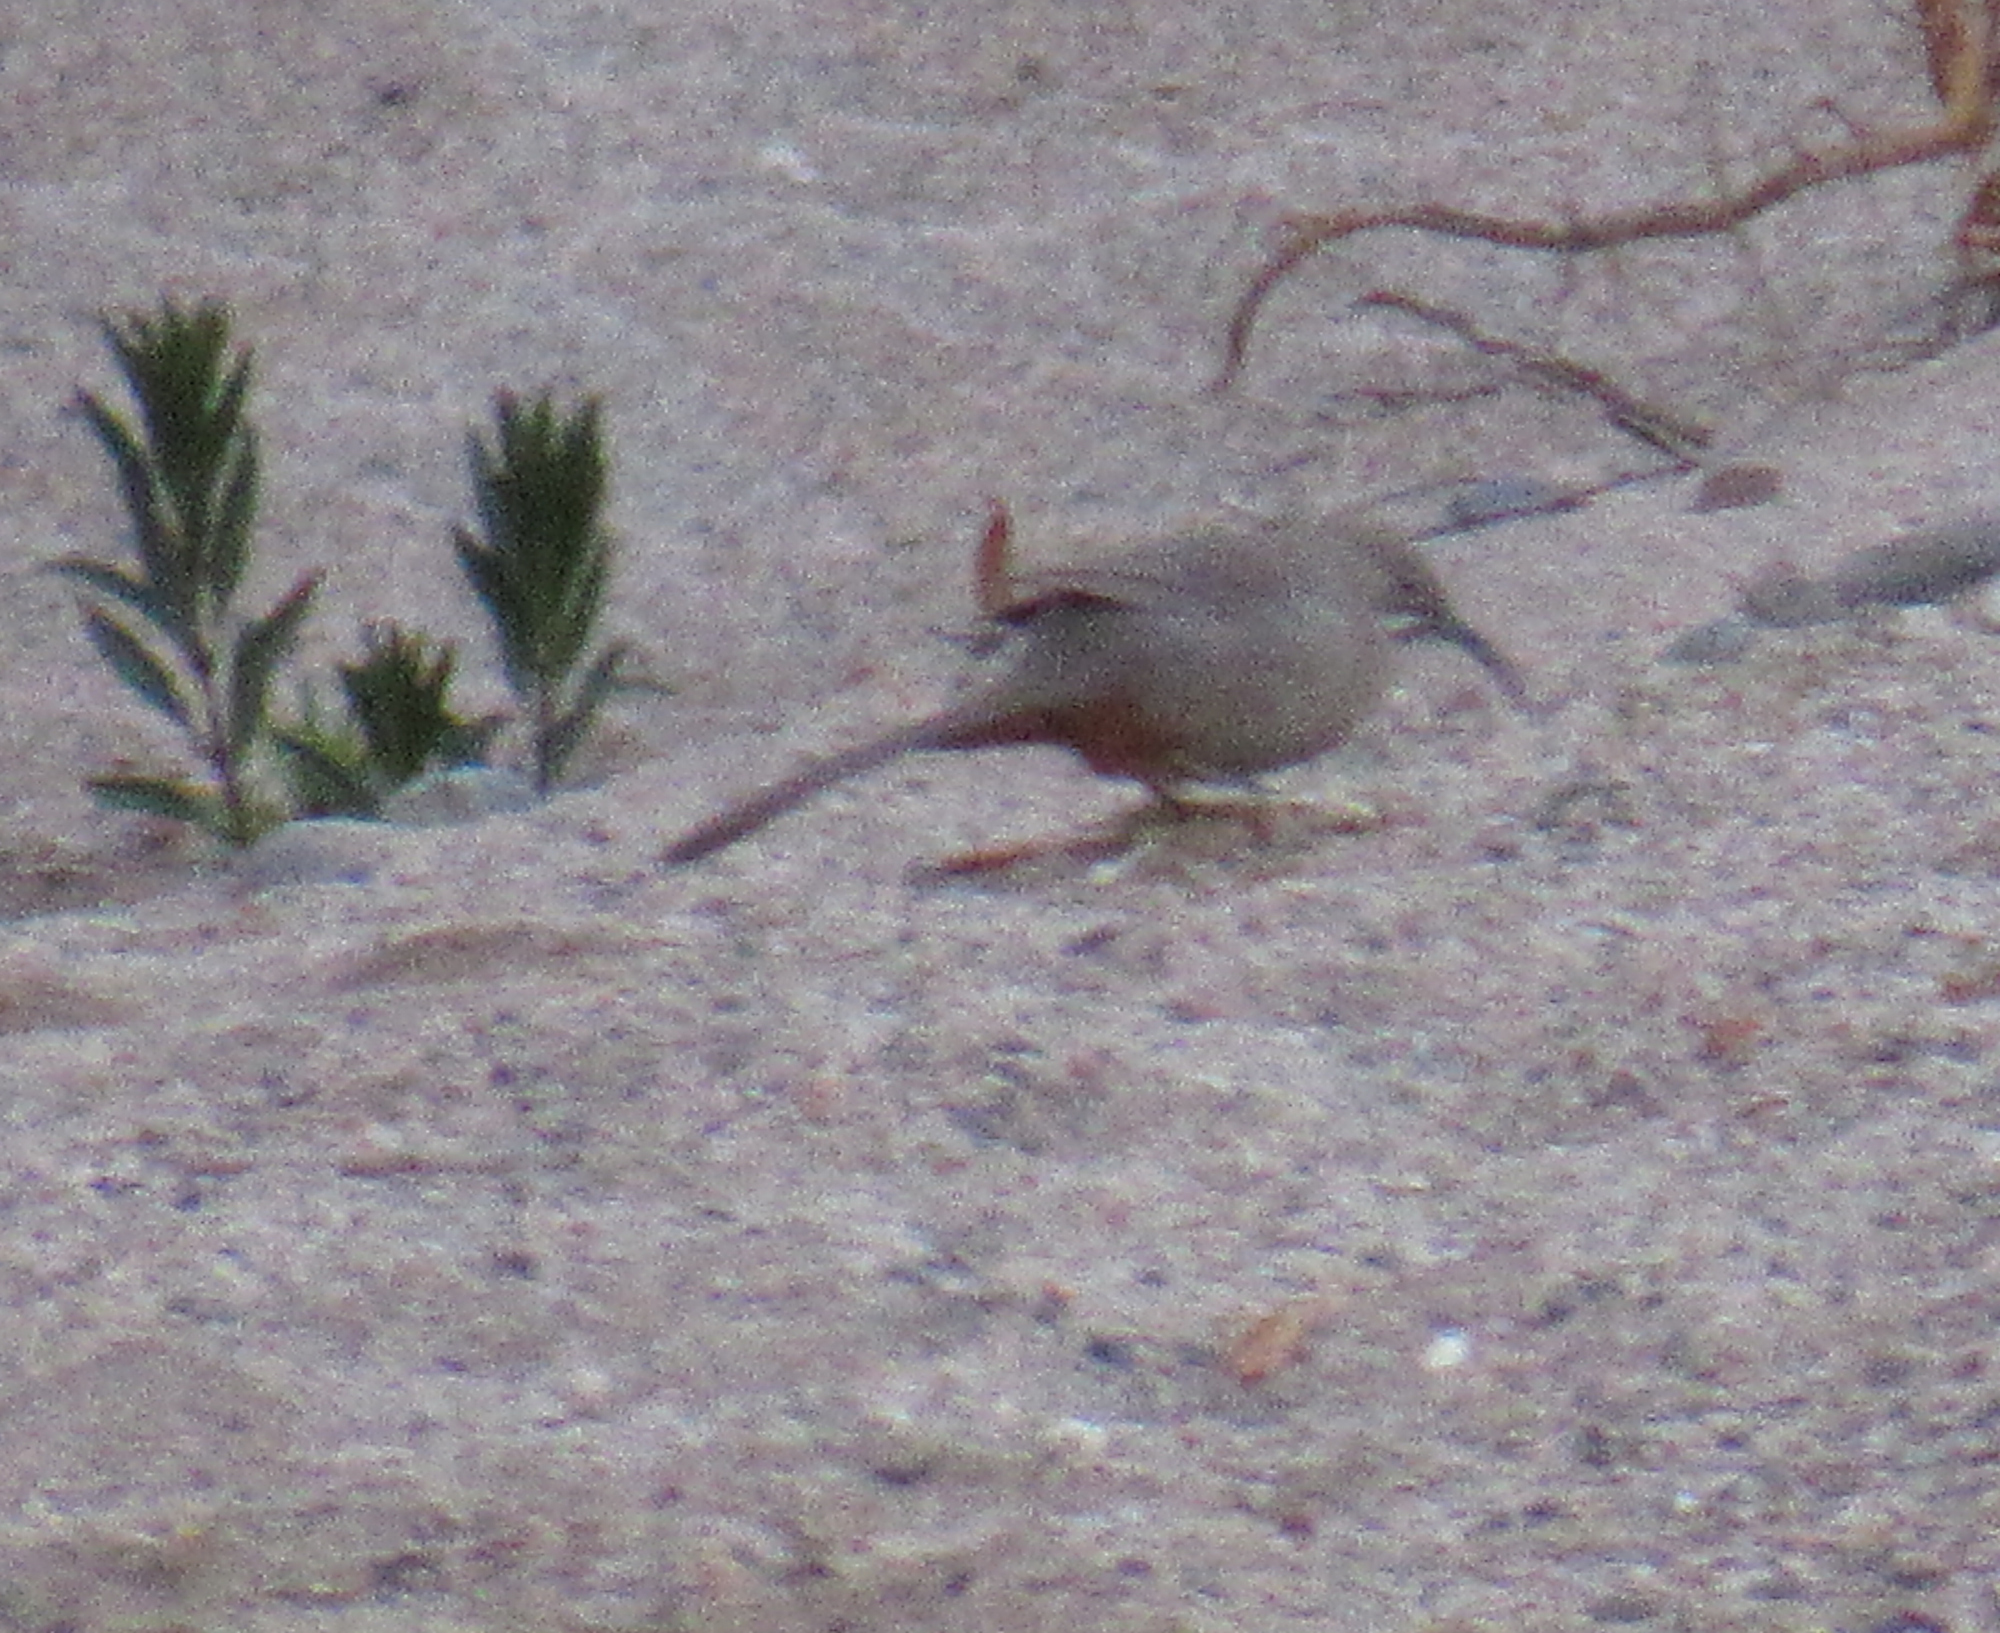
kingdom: Animalia
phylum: Chordata
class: Aves
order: Passeriformes
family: Mimidae
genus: Toxostoma
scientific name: Toxostoma crissale
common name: Crissal thrasher
